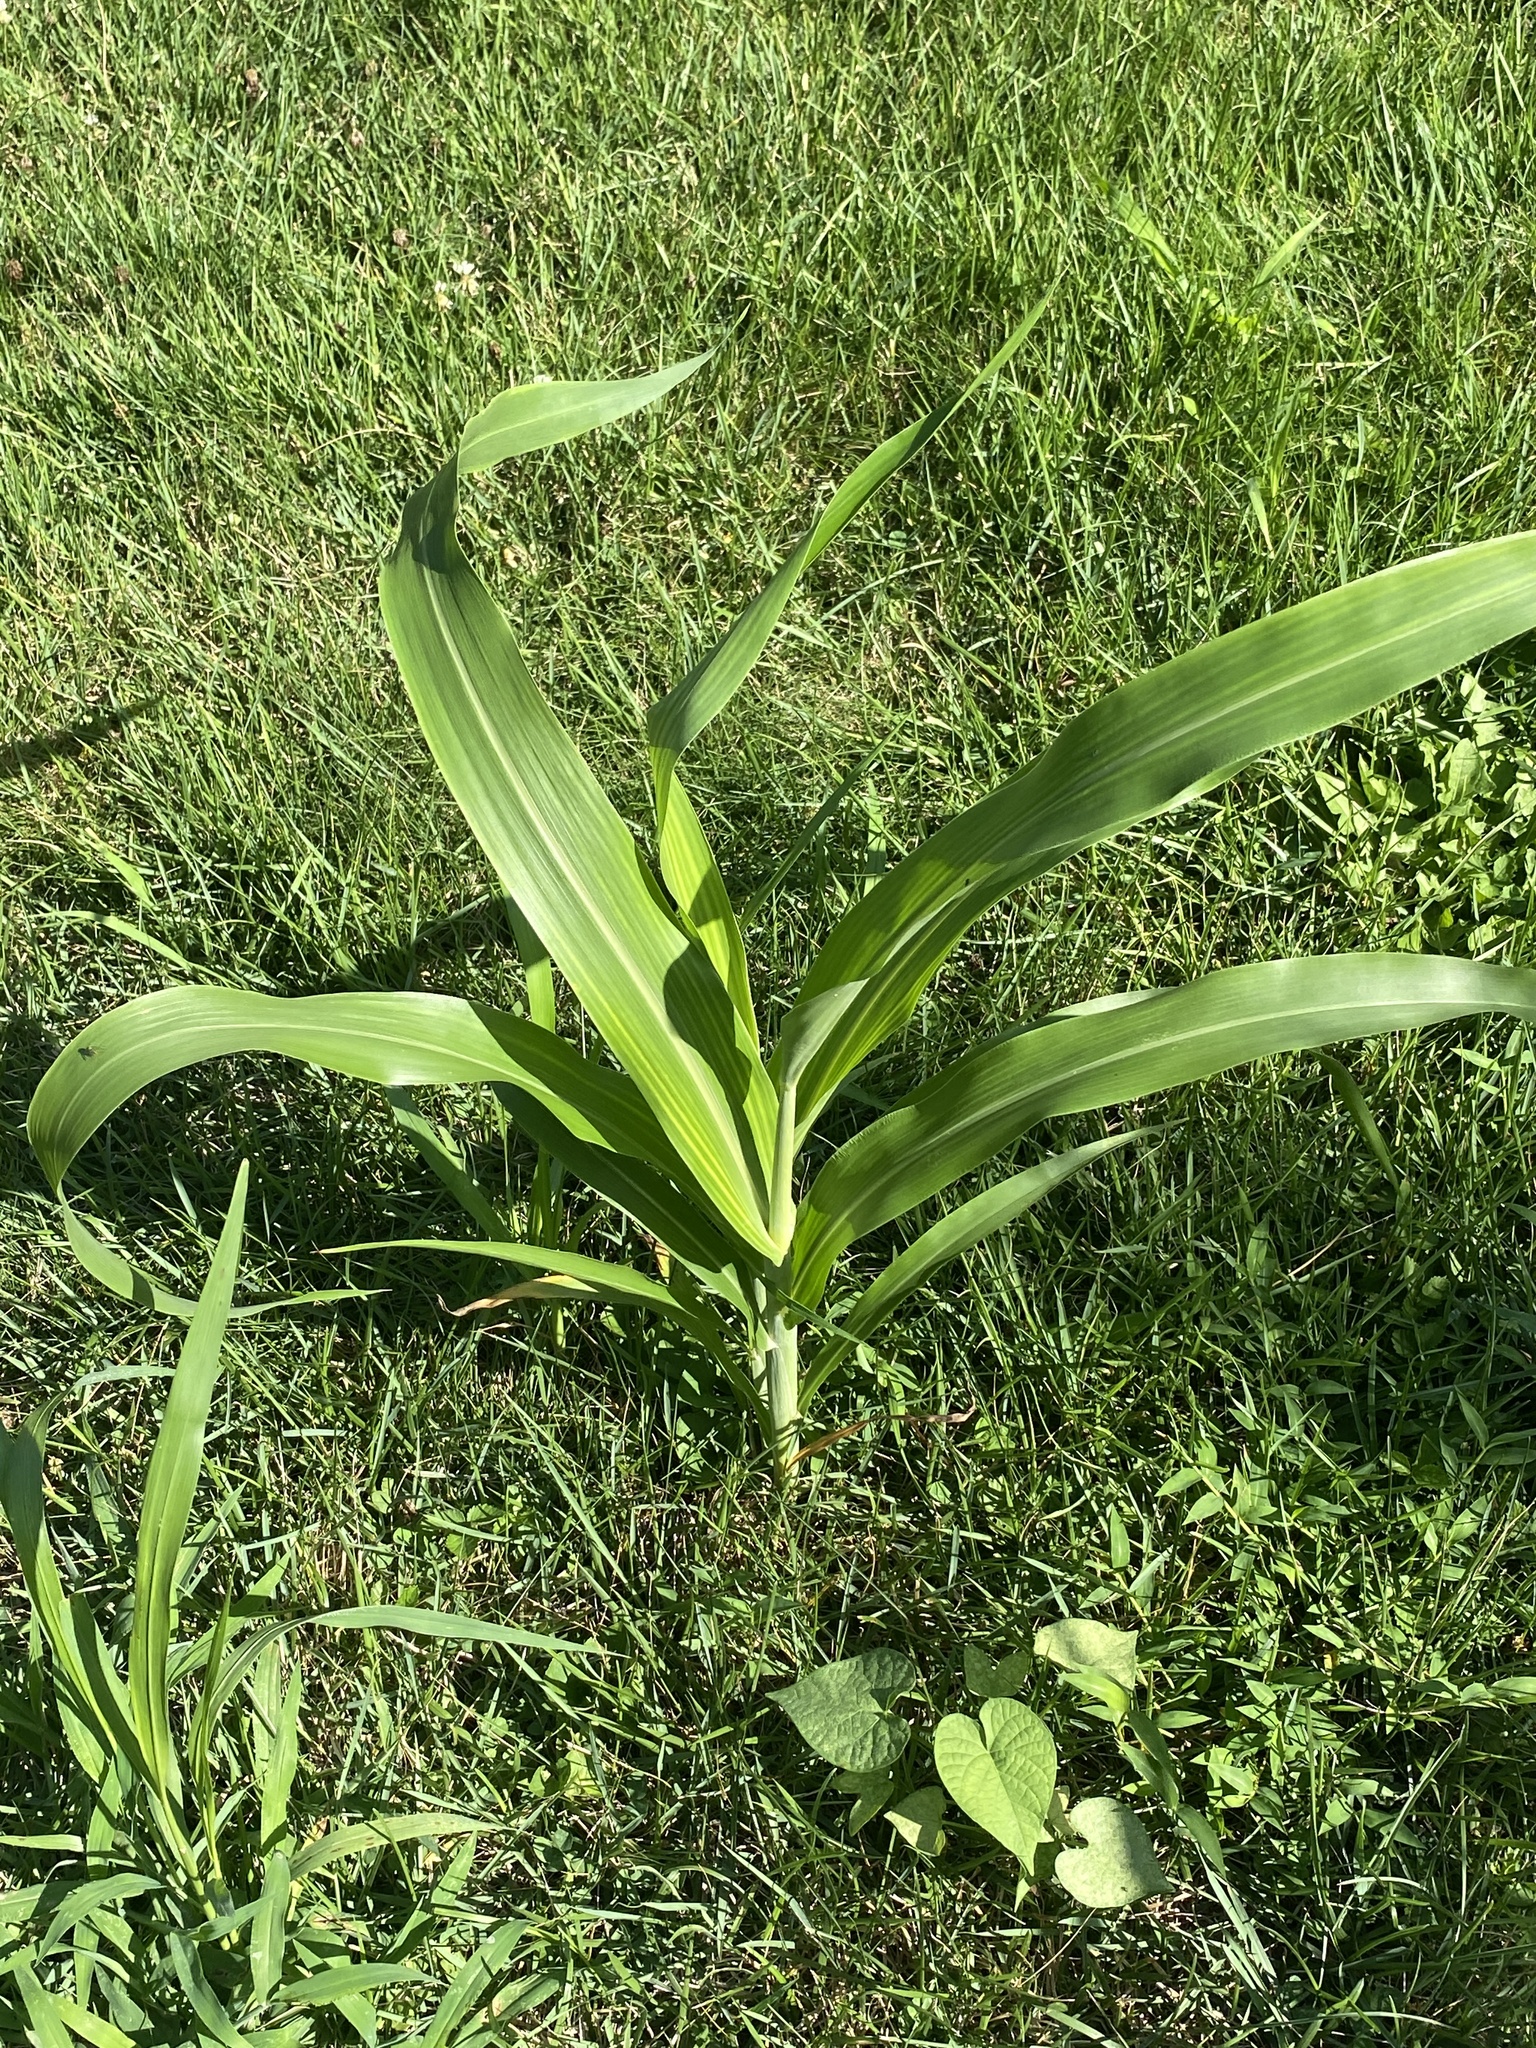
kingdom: Plantae
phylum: Tracheophyta
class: Liliopsida
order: Poales
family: Poaceae
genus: Zea
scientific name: Zea mays
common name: Maize
